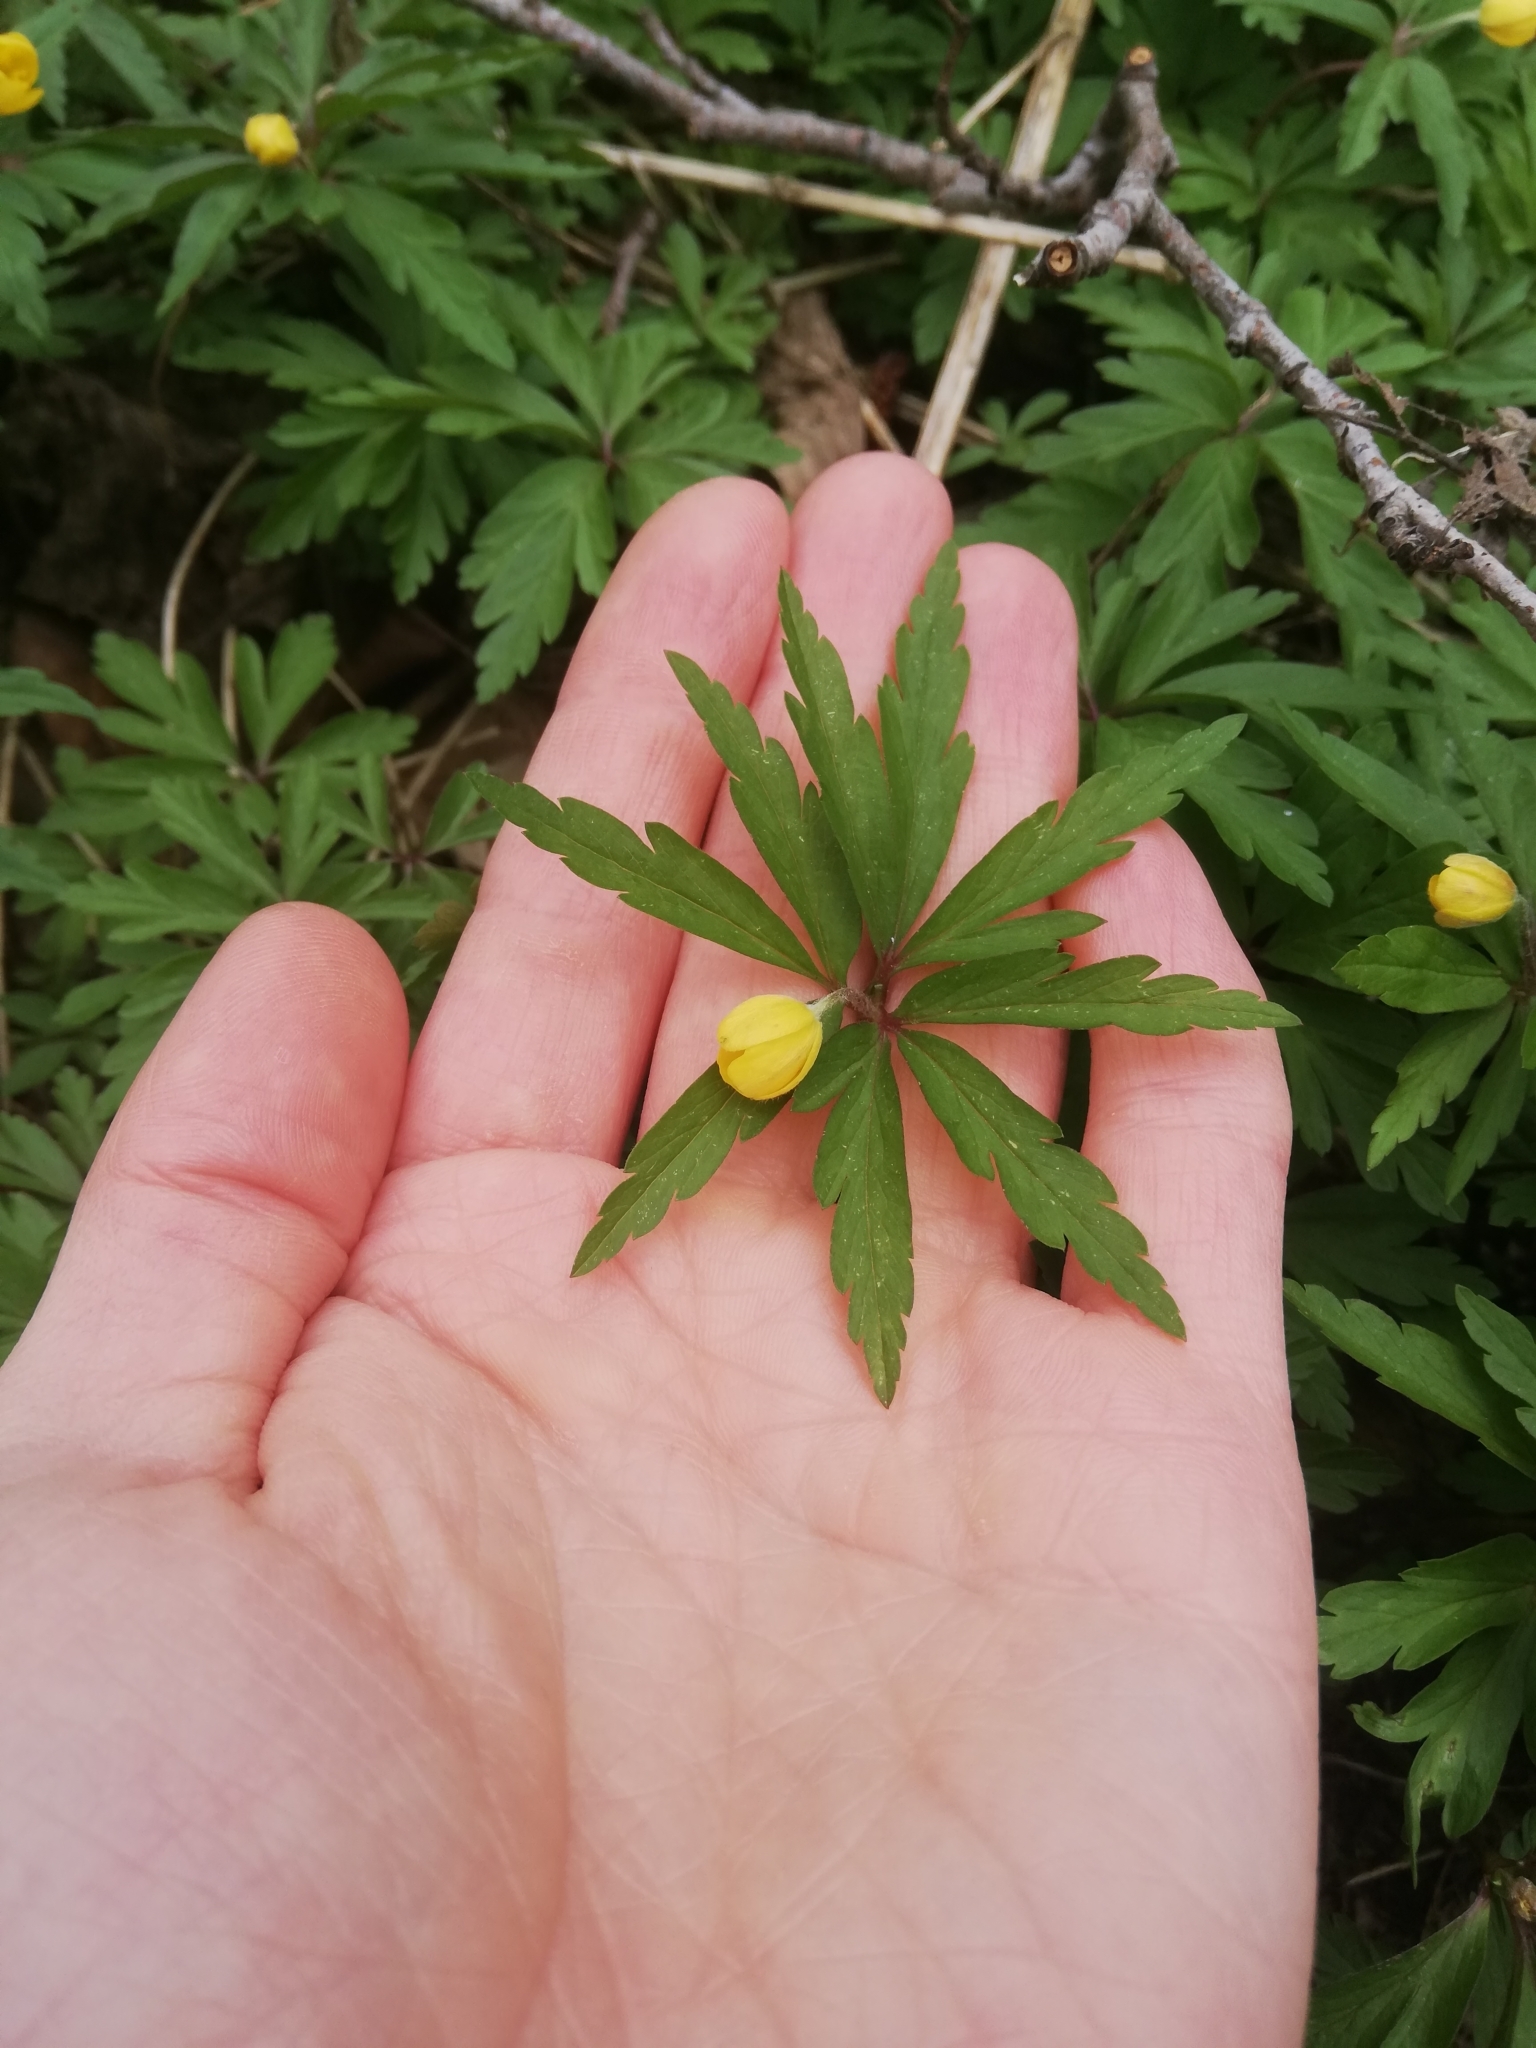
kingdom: Plantae
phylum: Tracheophyta
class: Magnoliopsida
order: Ranunculales
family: Ranunculaceae
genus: Anemone
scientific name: Anemone ranunculoides
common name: Yellow anemone
